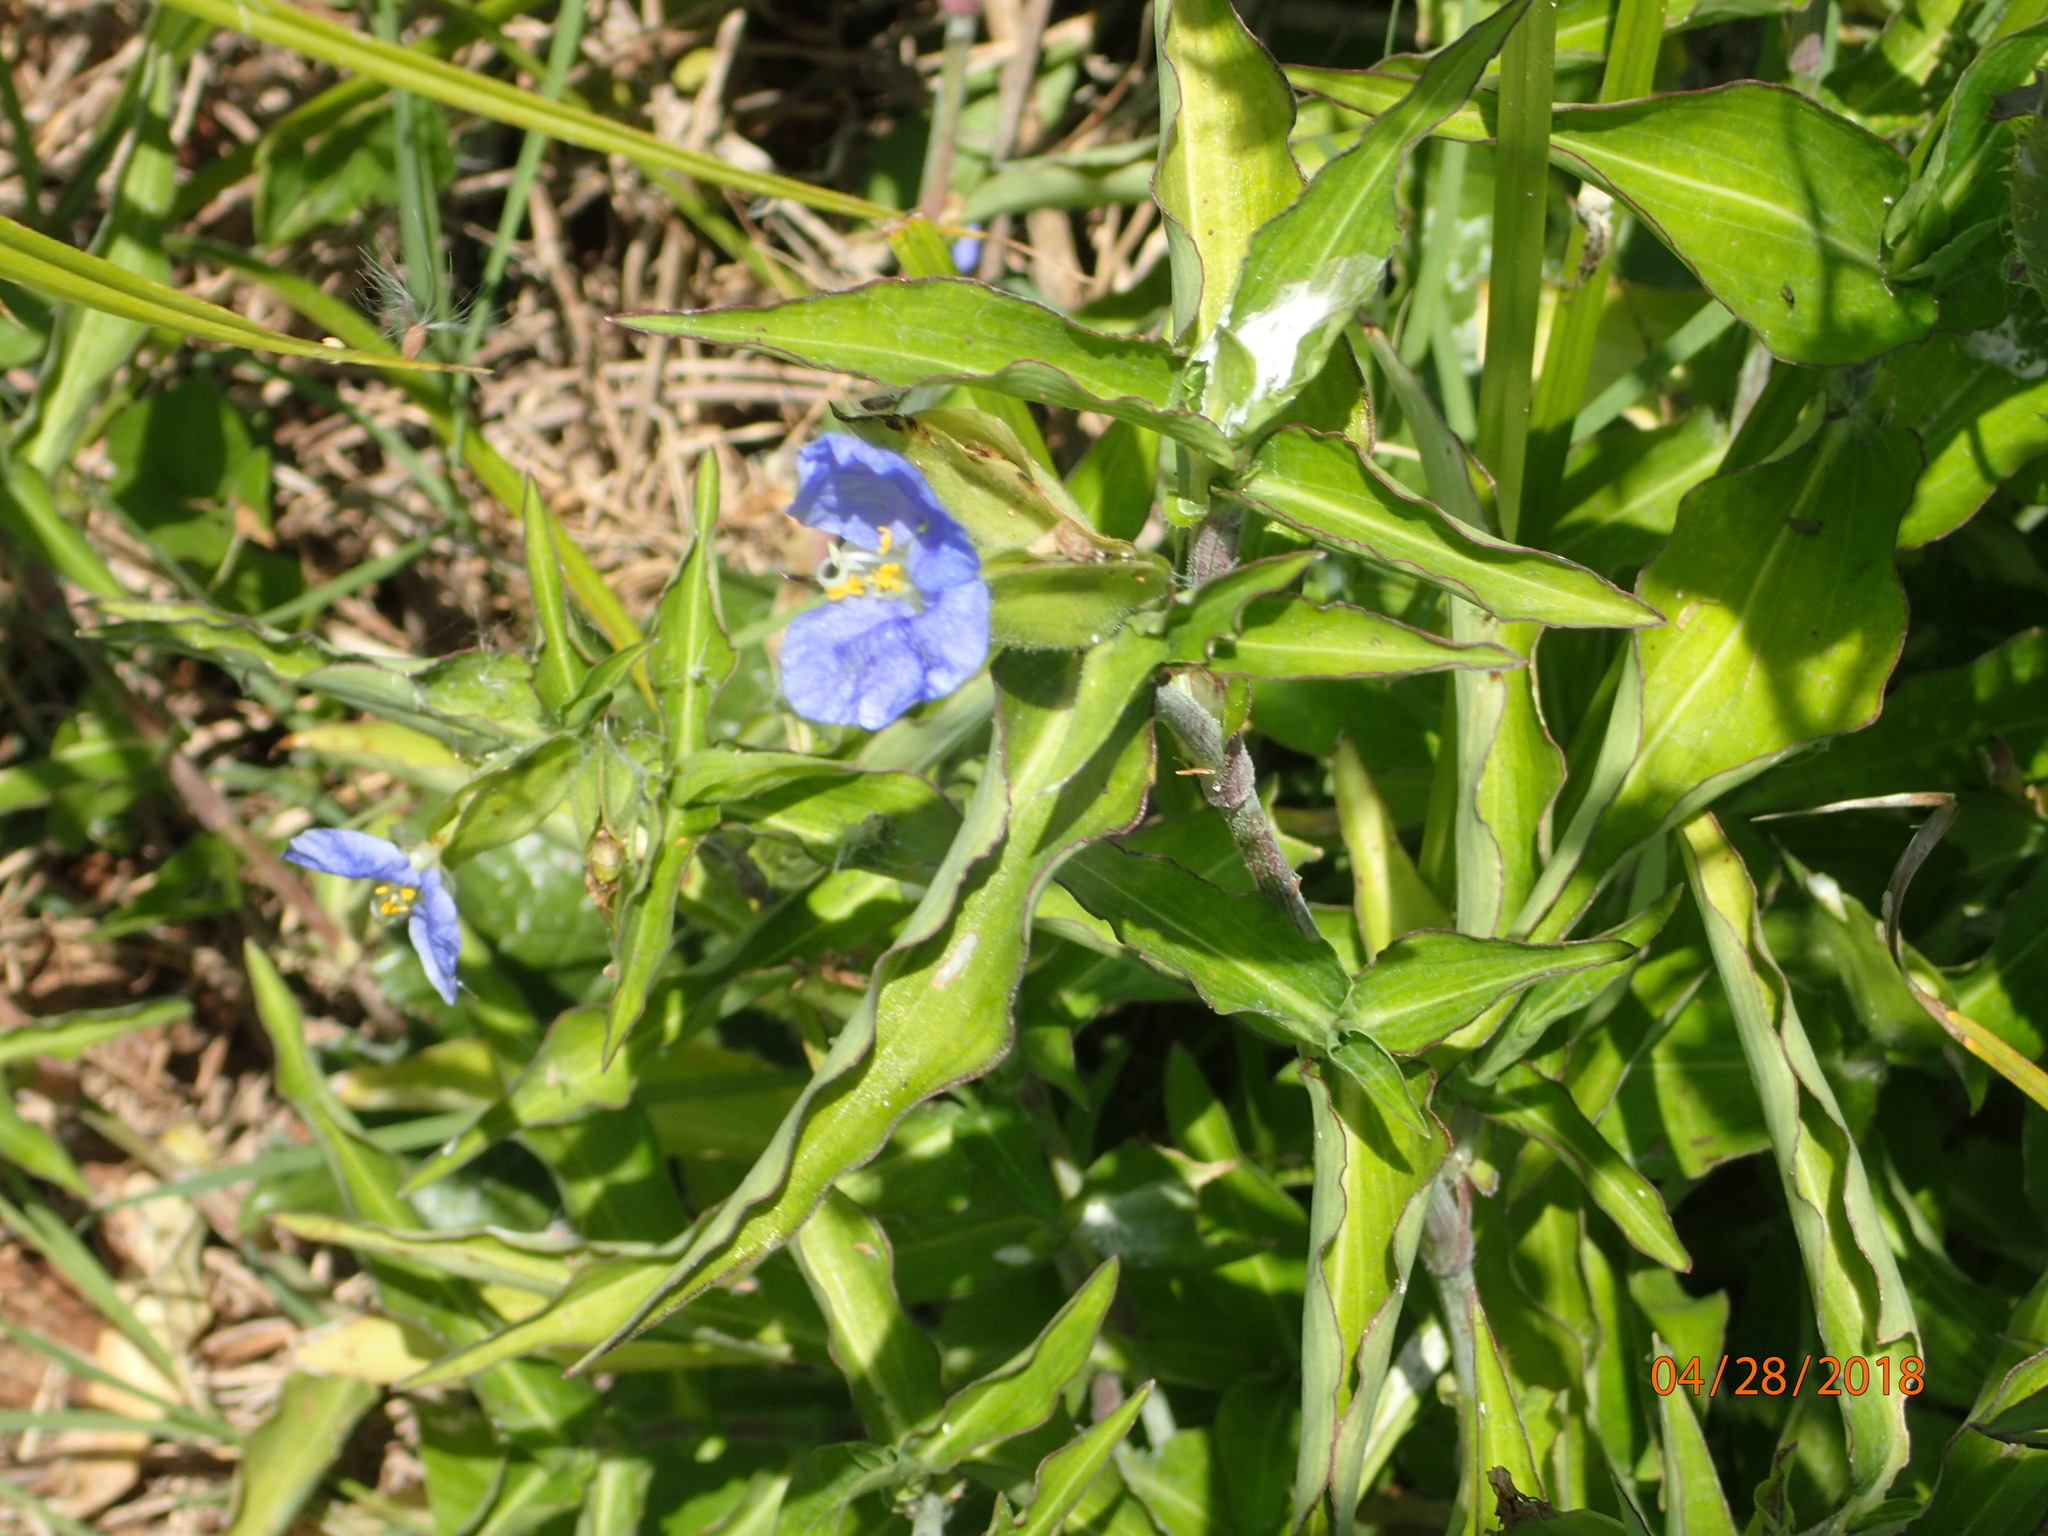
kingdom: Plantae
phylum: Tracheophyta
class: Liliopsida
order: Commelinales
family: Commelinaceae
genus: Commelina
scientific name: Commelina erecta
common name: Blousel blommetjie
